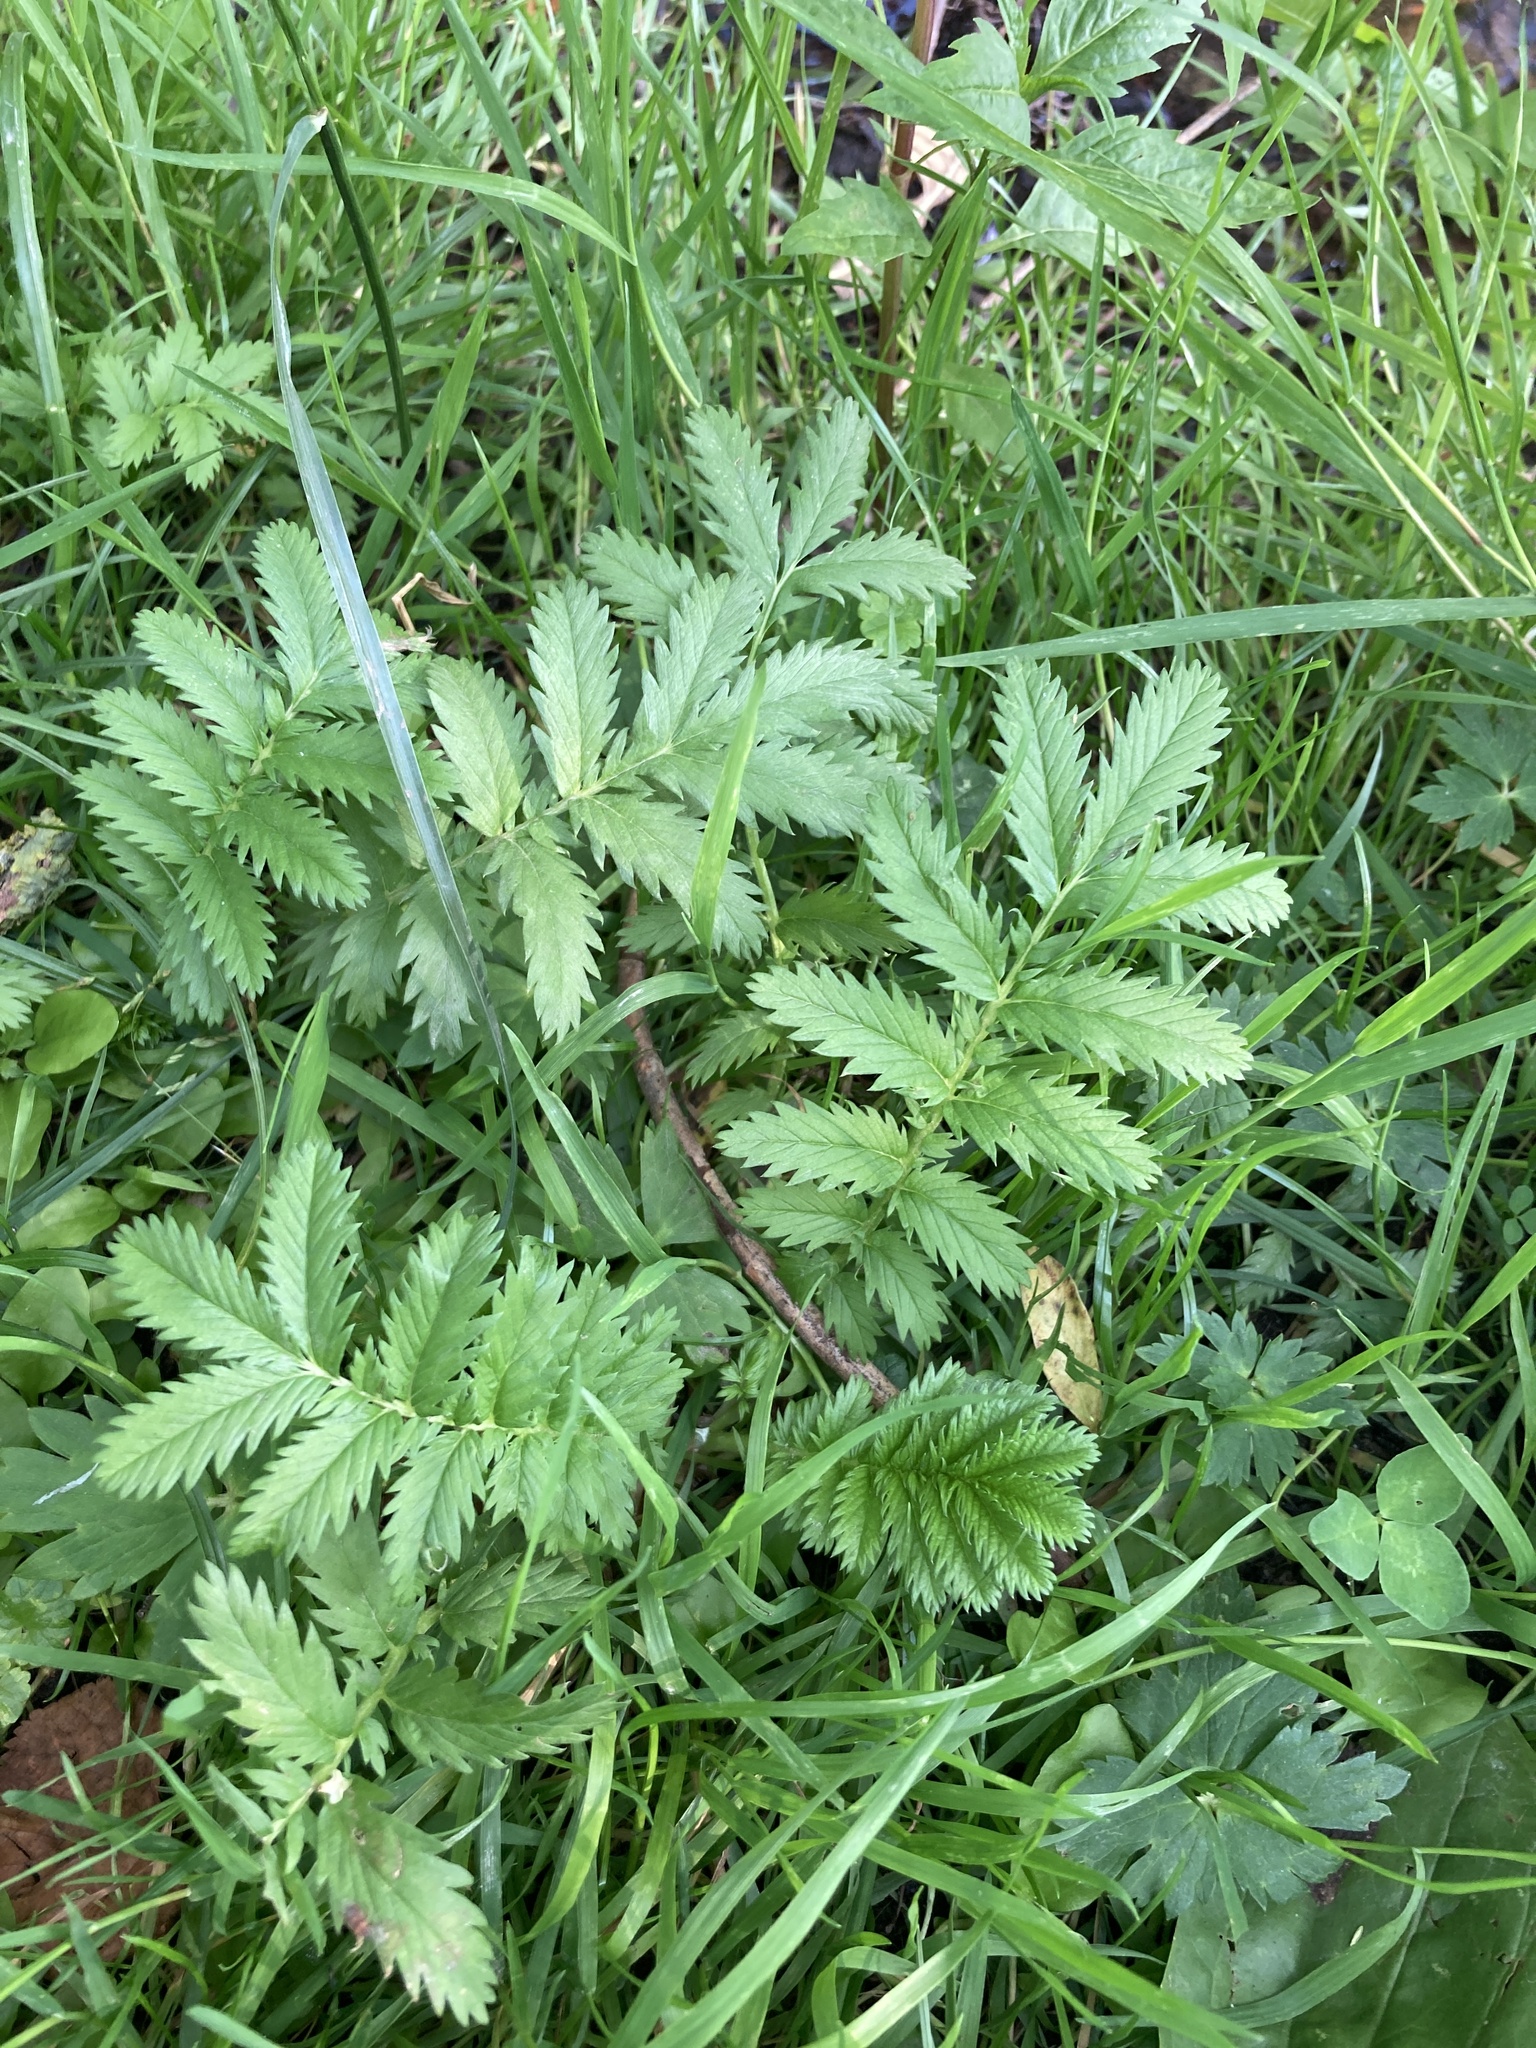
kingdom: Plantae
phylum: Tracheophyta
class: Magnoliopsida
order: Rosales
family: Rosaceae
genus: Argentina
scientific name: Argentina anserina
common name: Common silverweed
